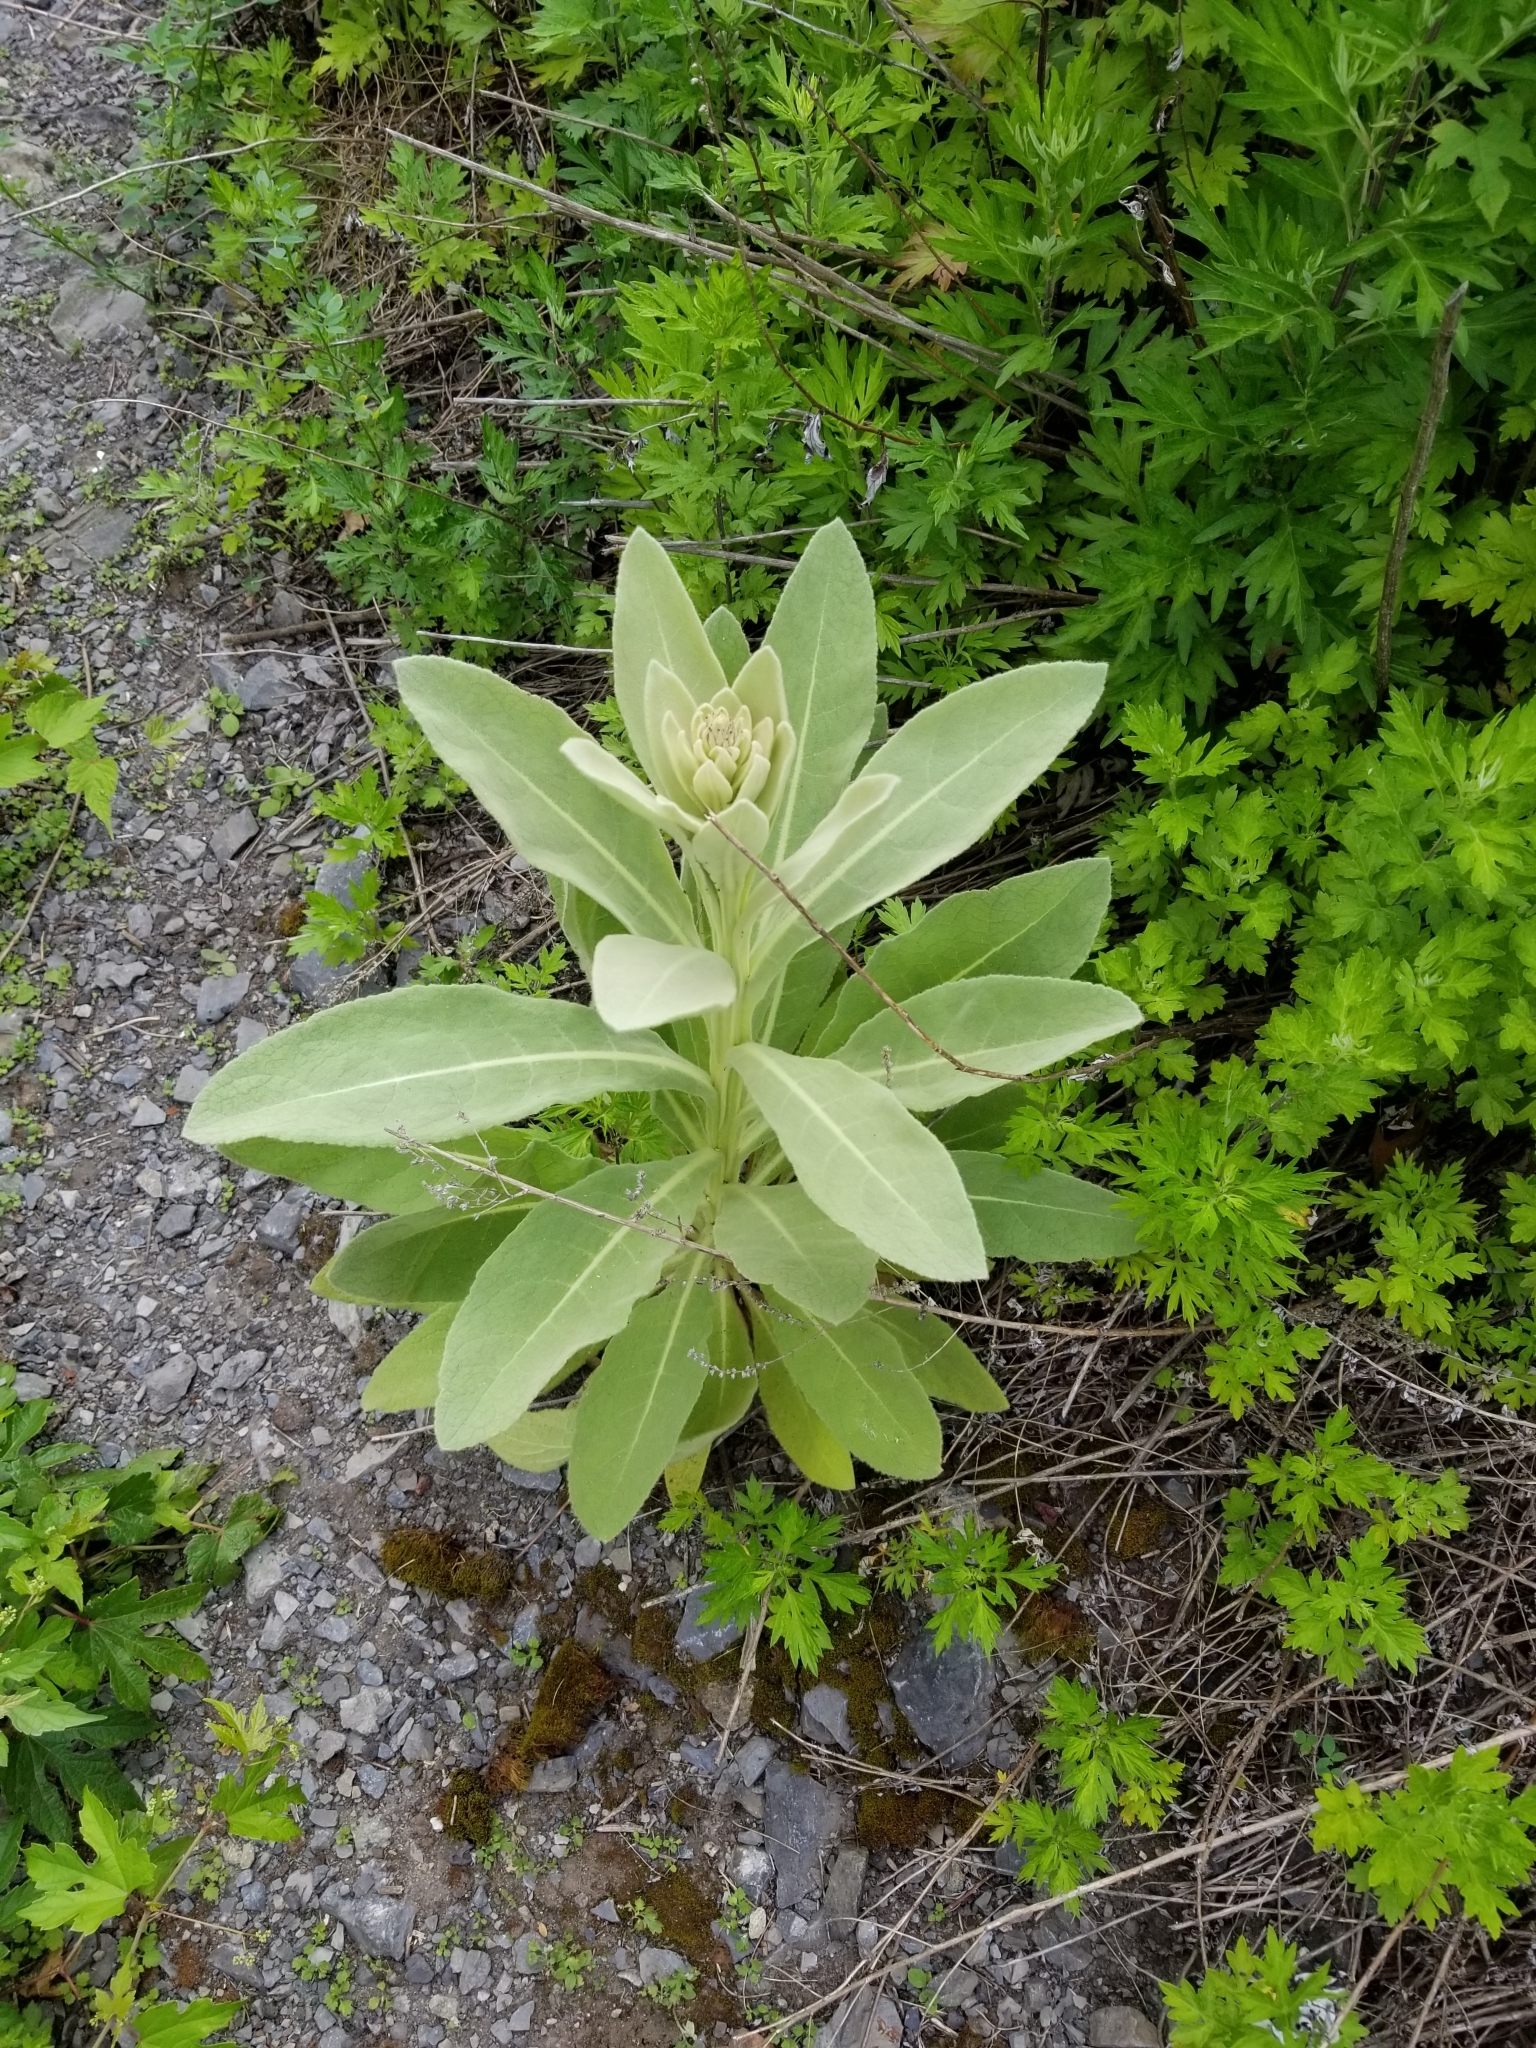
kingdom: Plantae
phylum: Tracheophyta
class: Magnoliopsida
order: Lamiales
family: Scrophulariaceae
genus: Verbascum
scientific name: Verbascum thapsus
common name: Common mullein
